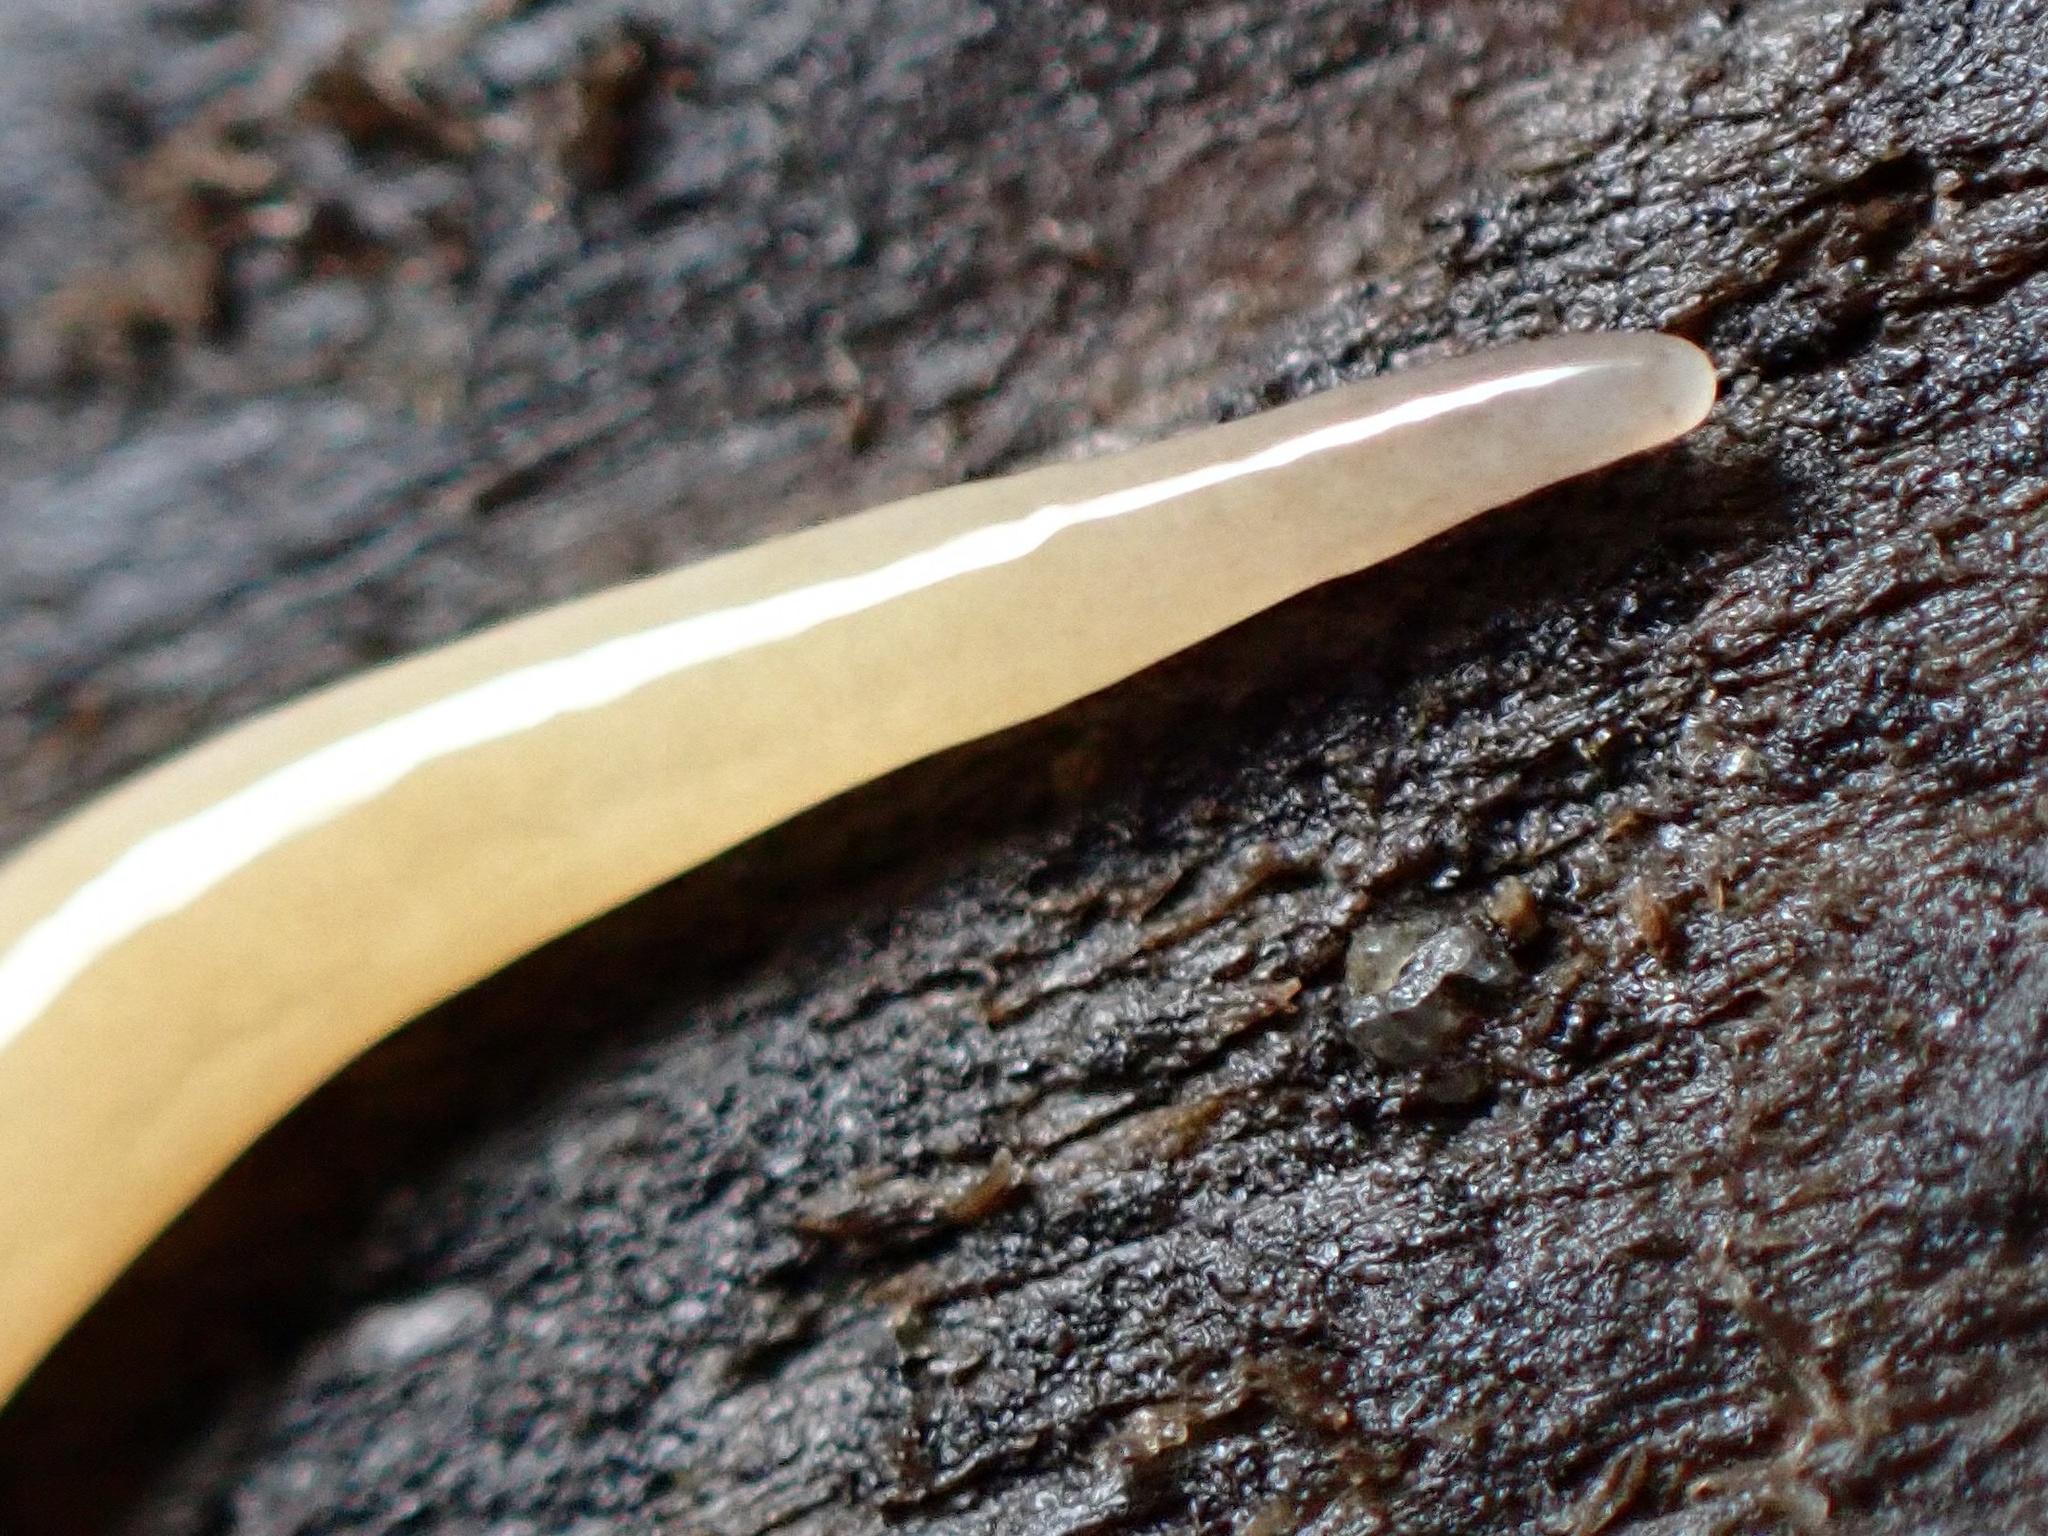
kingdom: Animalia
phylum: Platyhelminthes
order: Tricladida
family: Geoplanidae
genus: Microplana
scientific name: Microplana scharffi
